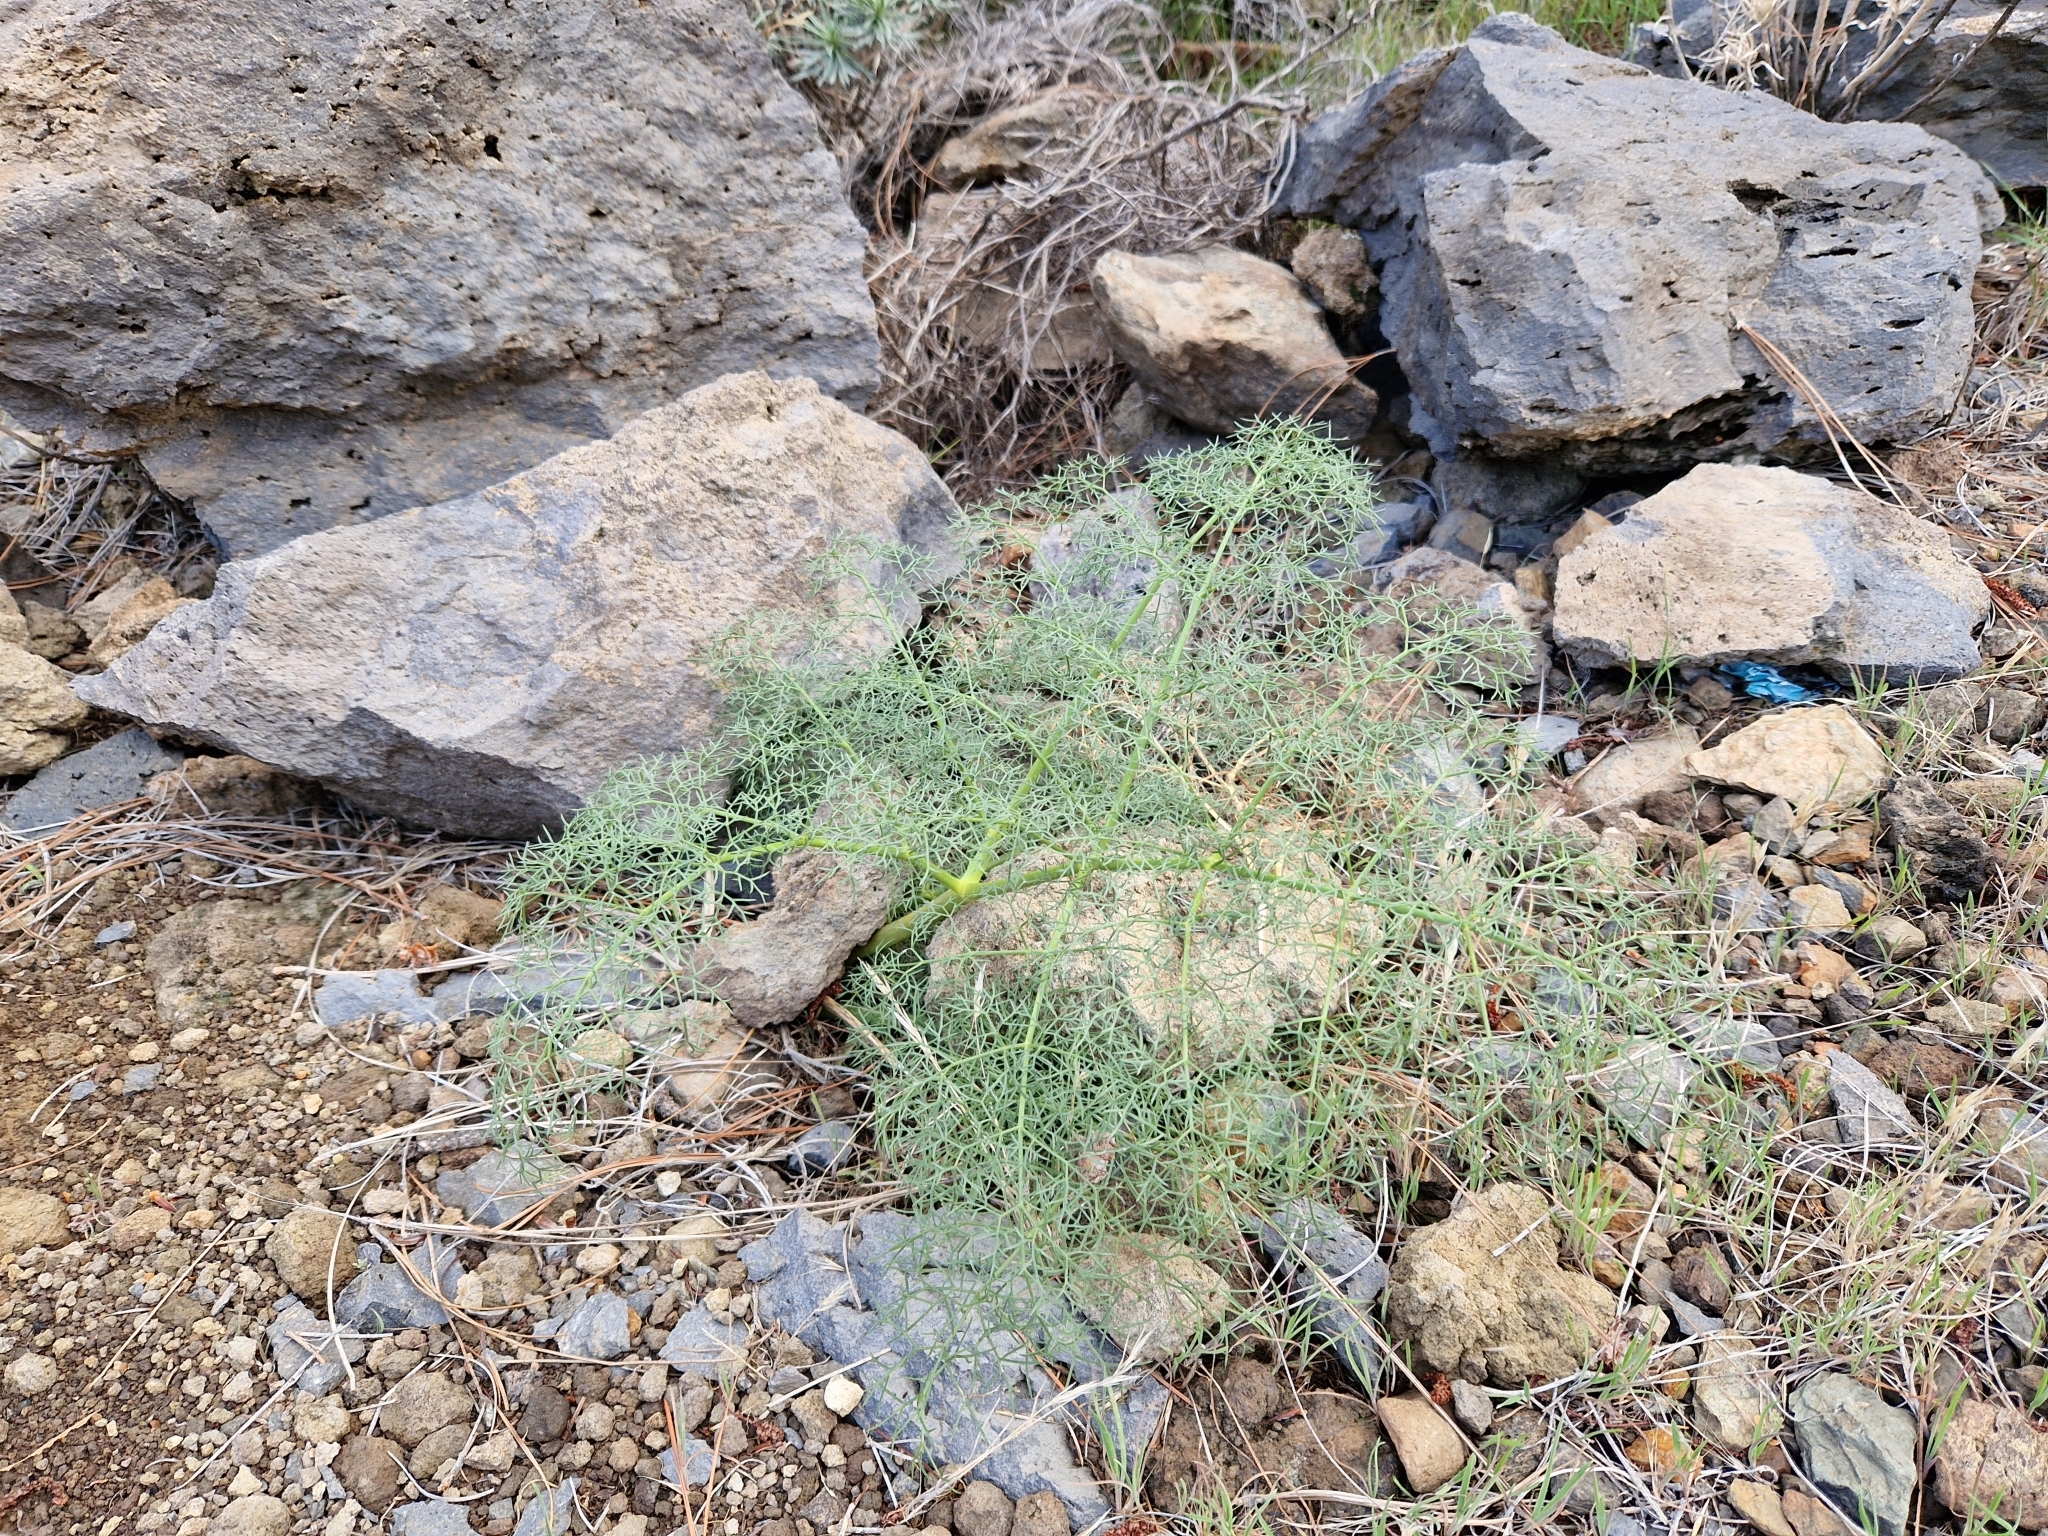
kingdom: Plantae
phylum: Tracheophyta
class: Magnoliopsida
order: Apiales
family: Apiaceae
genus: Ferula
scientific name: Ferula communis
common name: Giant fennel
